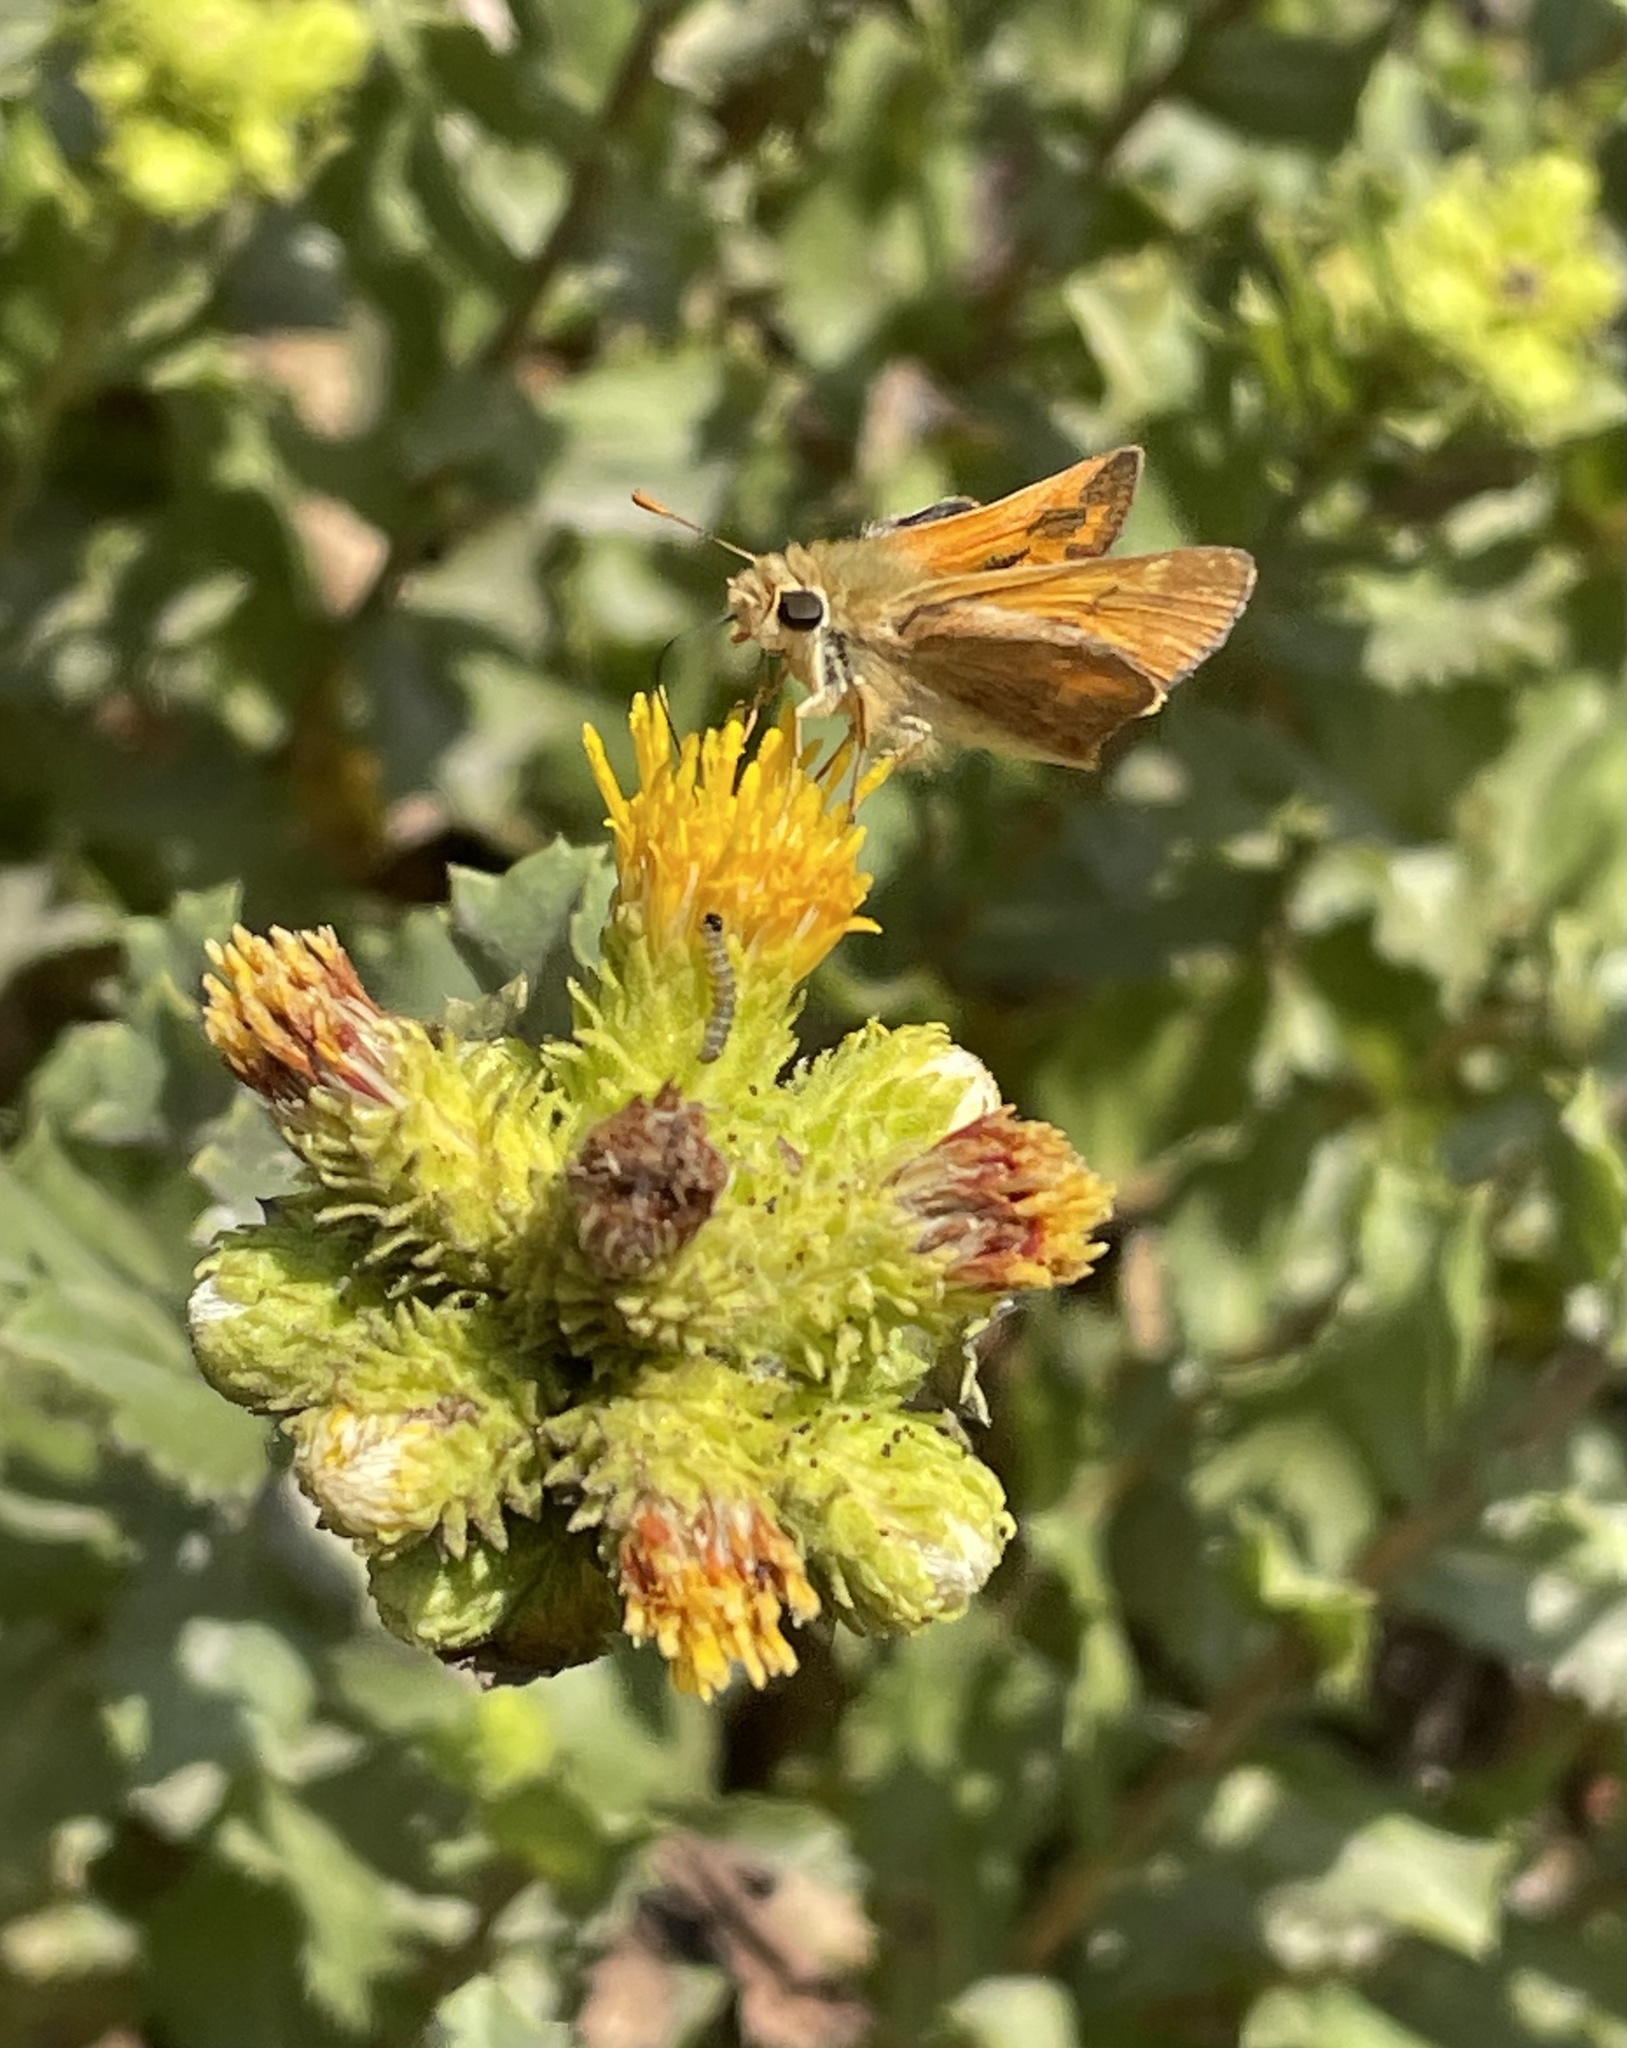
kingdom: Plantae
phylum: Tracheophyta
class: Magnoliopsida
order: Asterales
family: Asteraceae
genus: Hazardia
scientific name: Hazardia squarrosa
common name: Saw-tooth goldenbush
